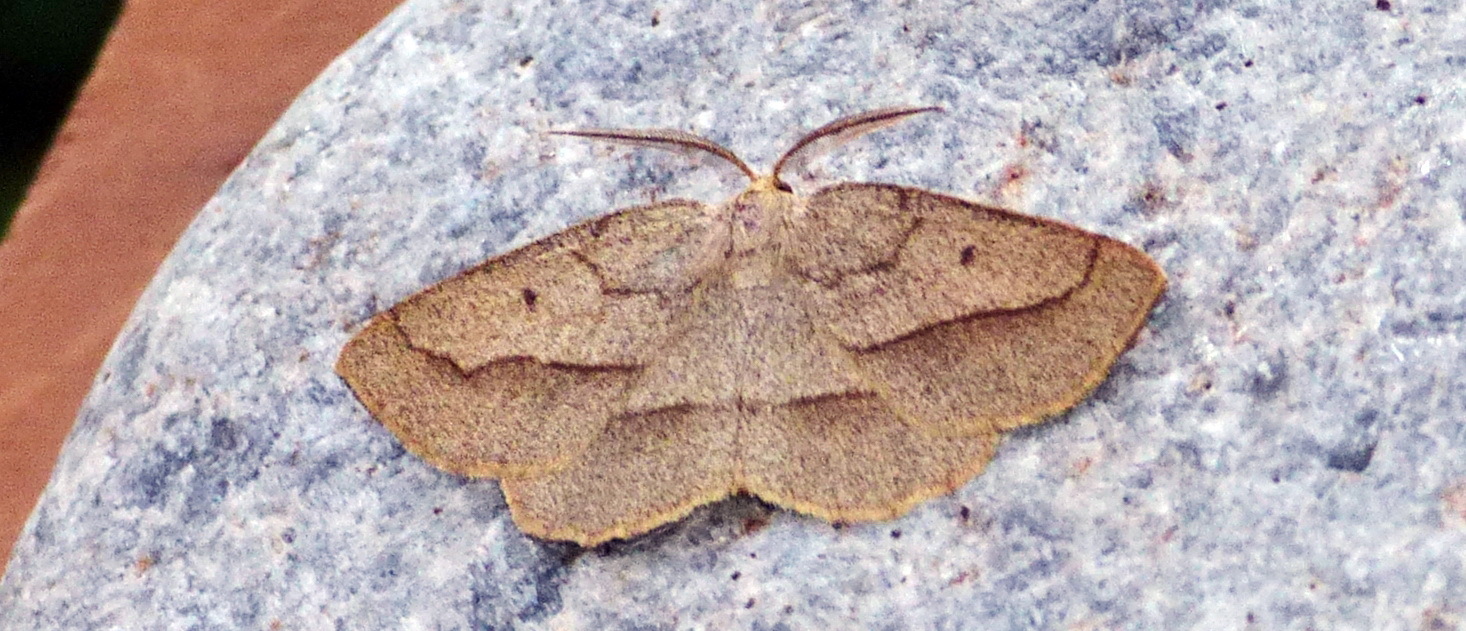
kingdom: Animalia
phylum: Arthropoda
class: Insecta
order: Lepidoptera
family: Geometridae
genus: Euchlaena
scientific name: Euchlaena irraria
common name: Least-marked euchlaena
